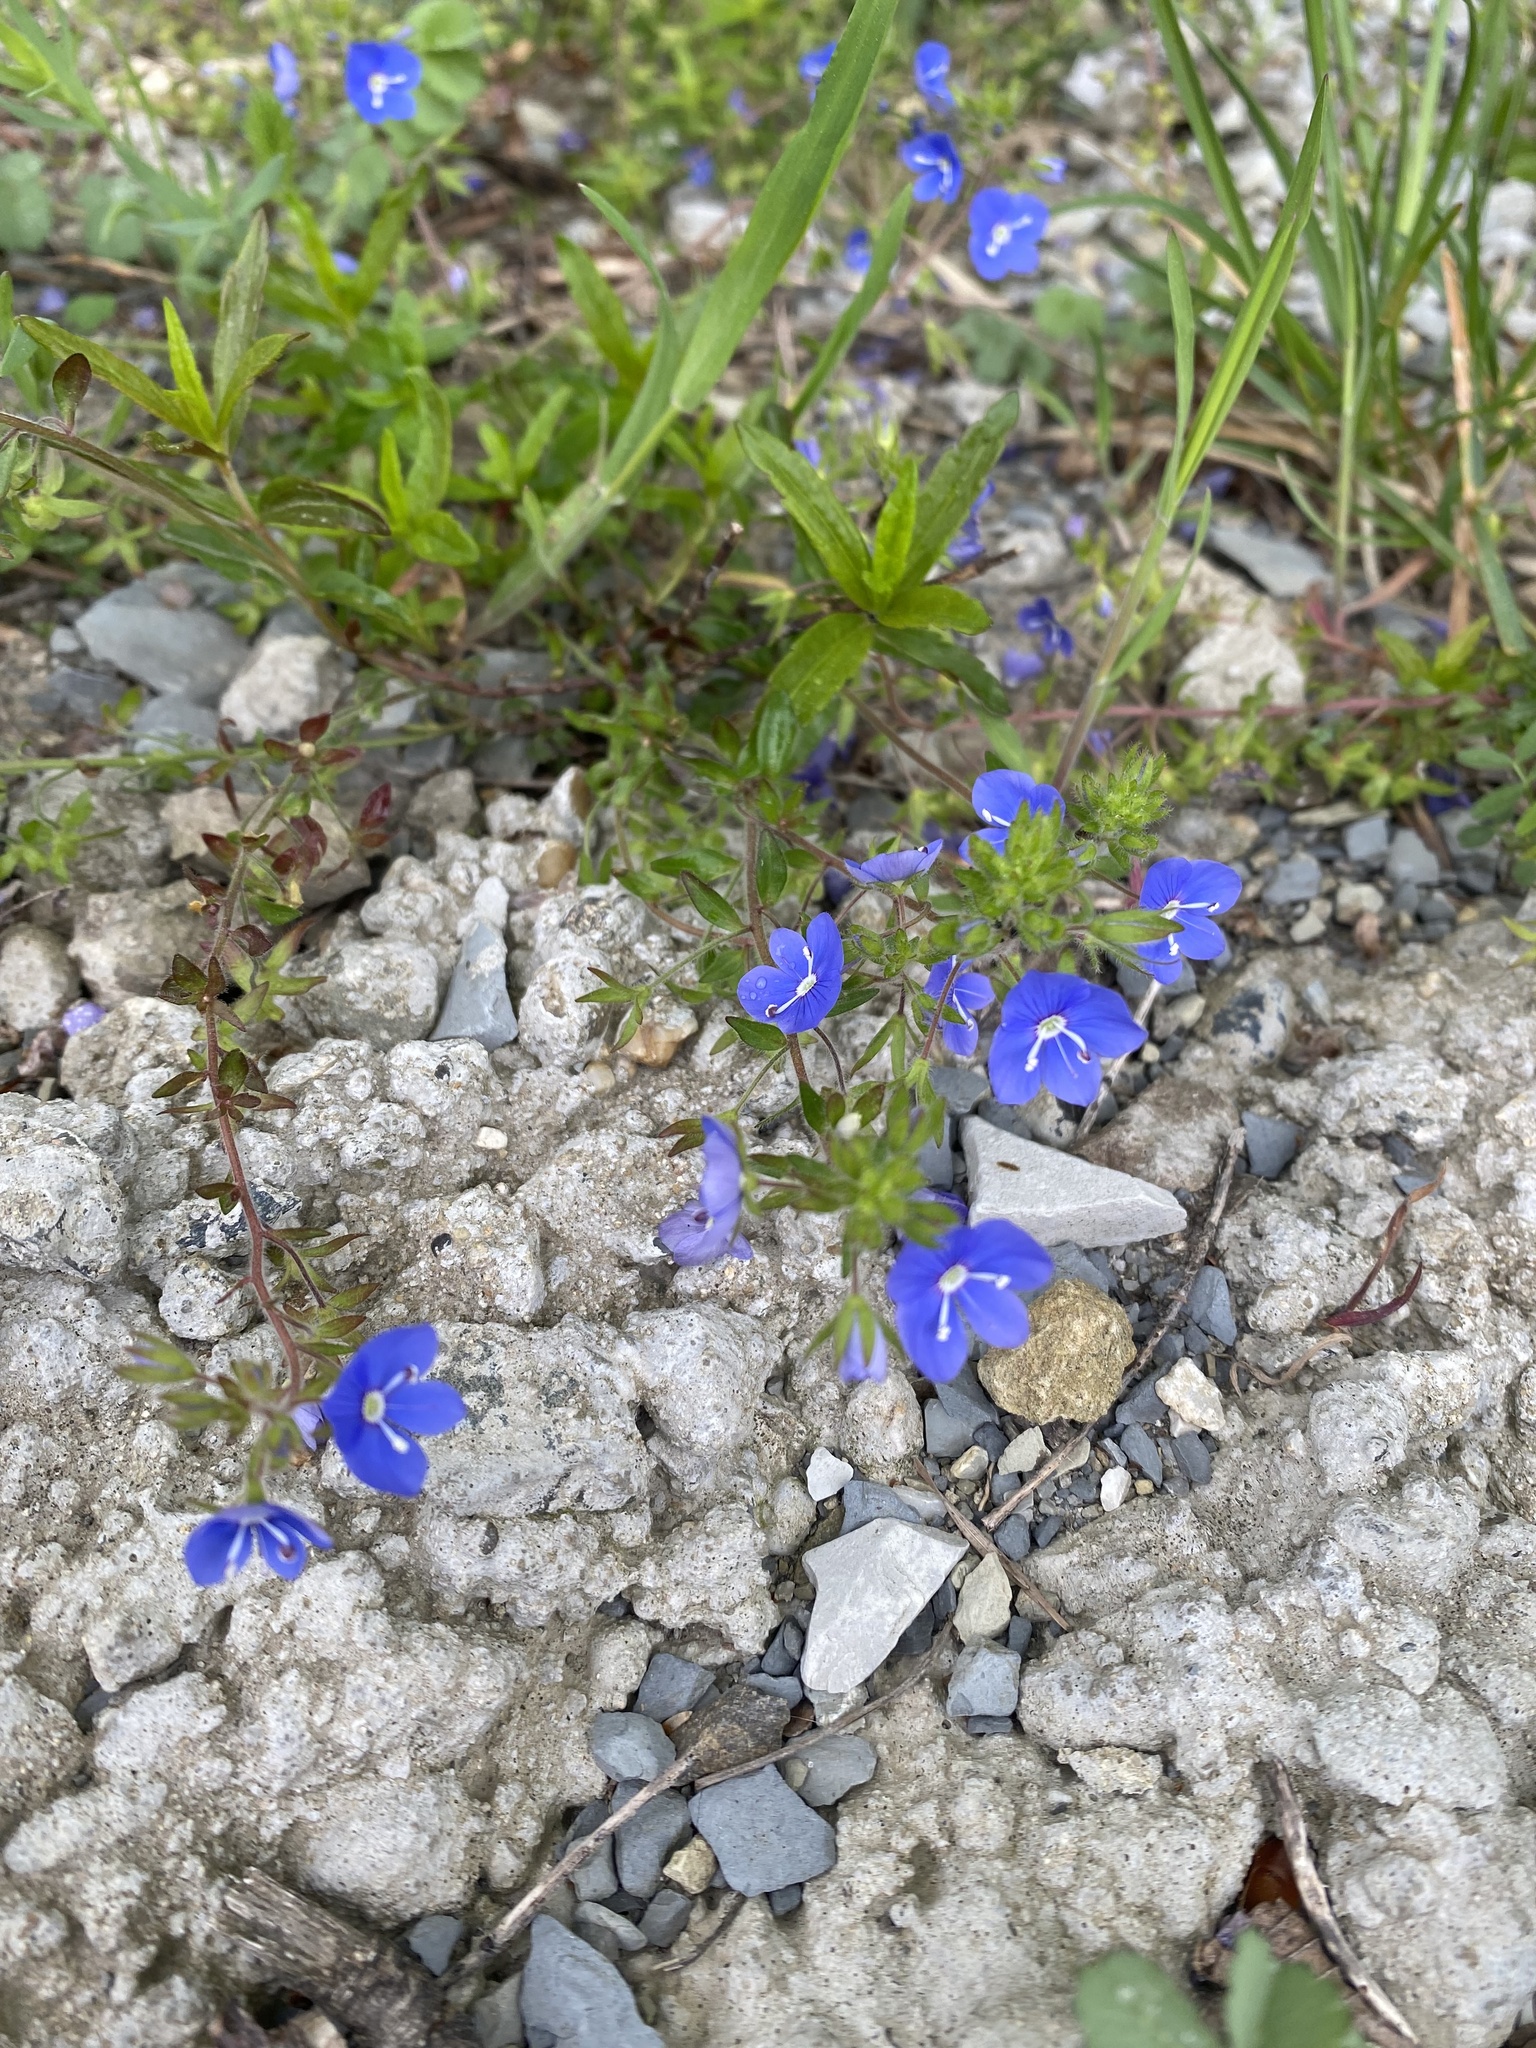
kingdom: Plantae
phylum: Tracheophyta
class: Magnoliopsida
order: Lamiales
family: Plantaginaceae
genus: Veronica
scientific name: Veronica
